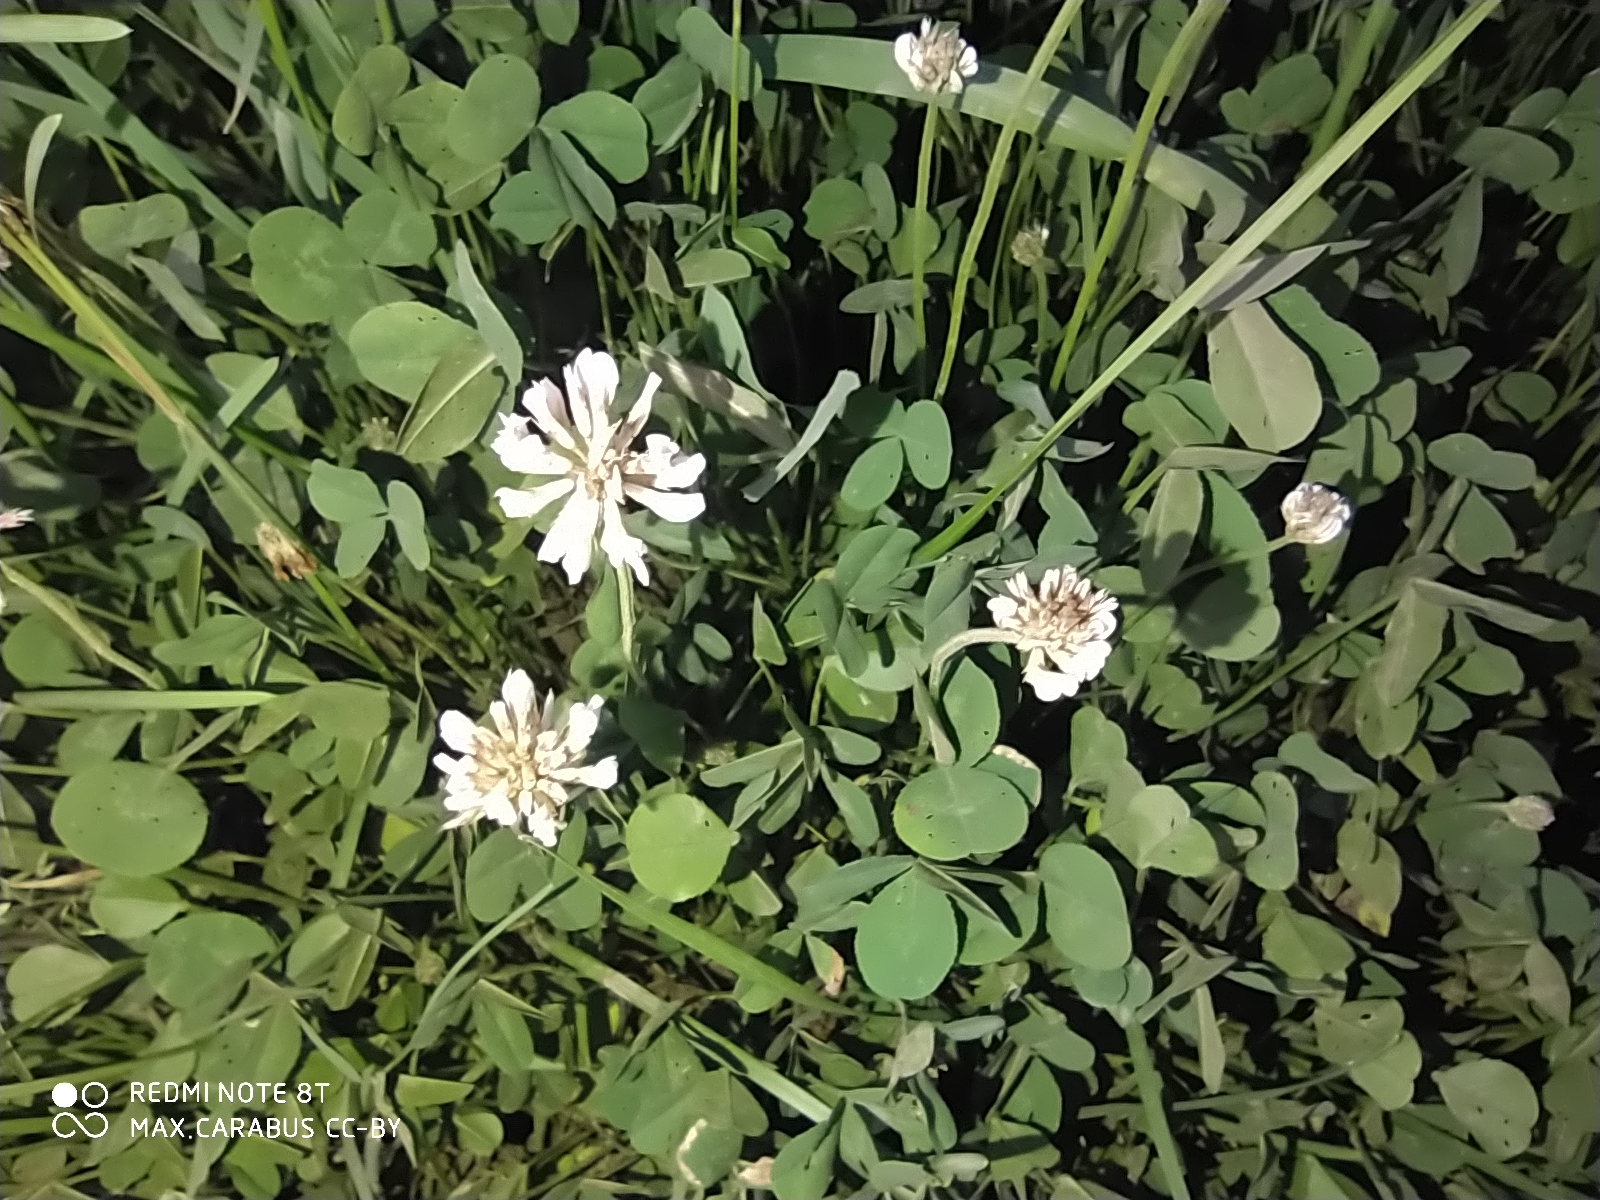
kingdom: Plantae
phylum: Tracheophyta
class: Magnoliopsida
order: Fabales
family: Fabaceae
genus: Trifolium
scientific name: Trifolium repens
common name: White clover
